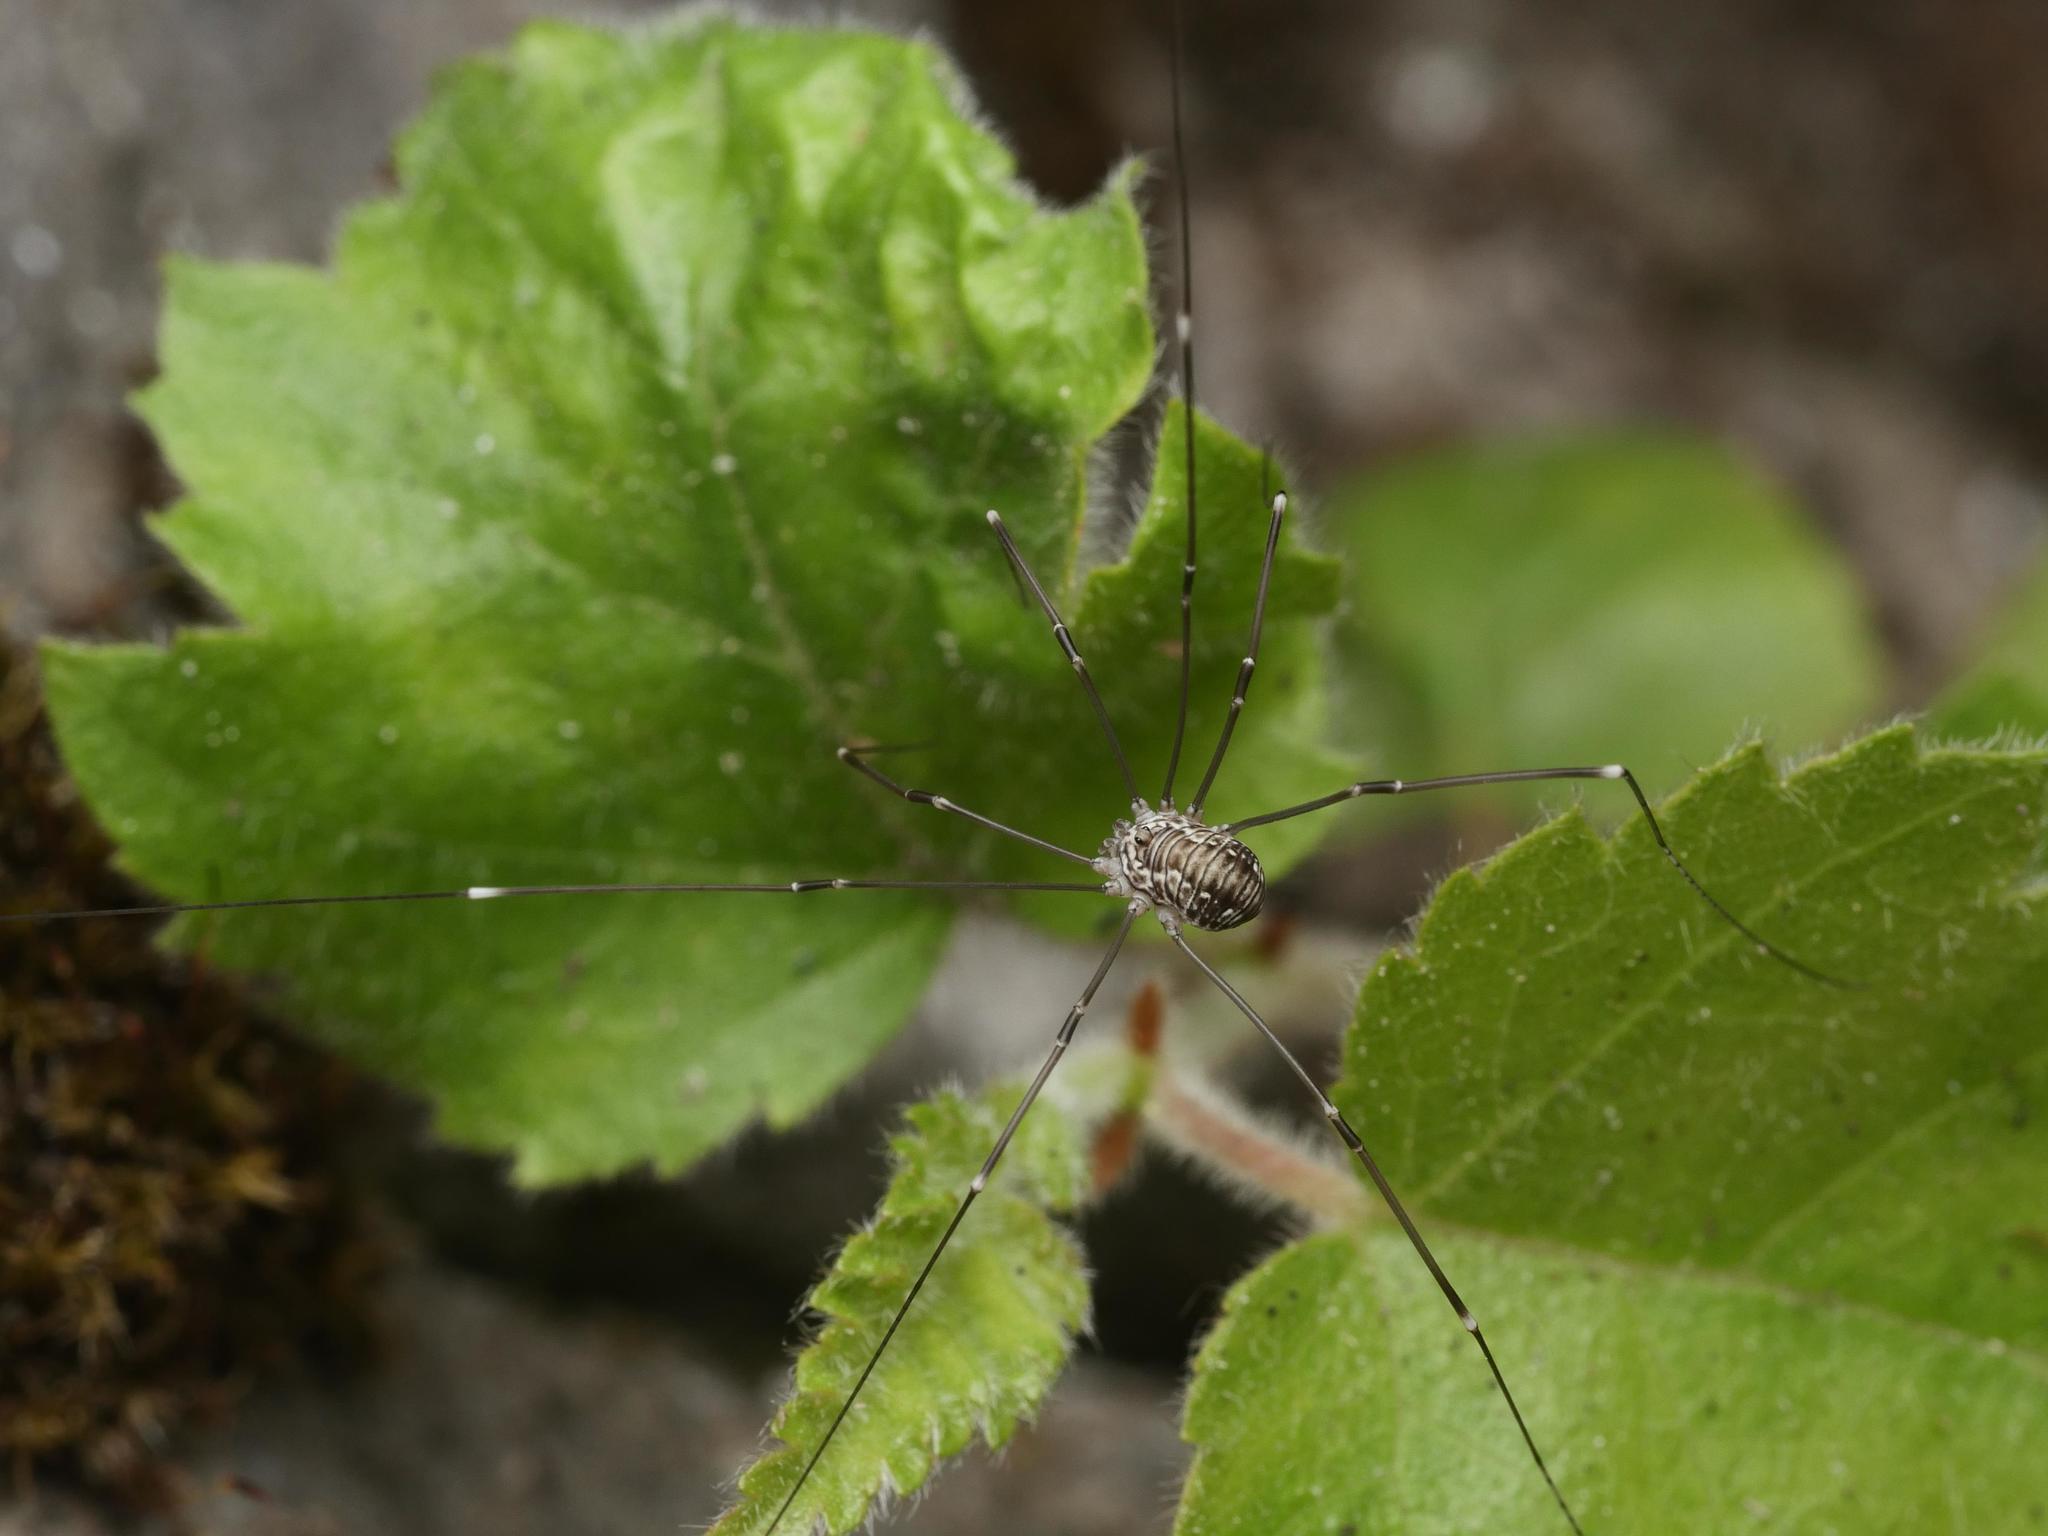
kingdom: Animalia
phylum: Arthropoda
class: Arachnida
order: Opiliones
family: Sclerosomatidae
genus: Leiobunum
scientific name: Leiobunum limbatum
